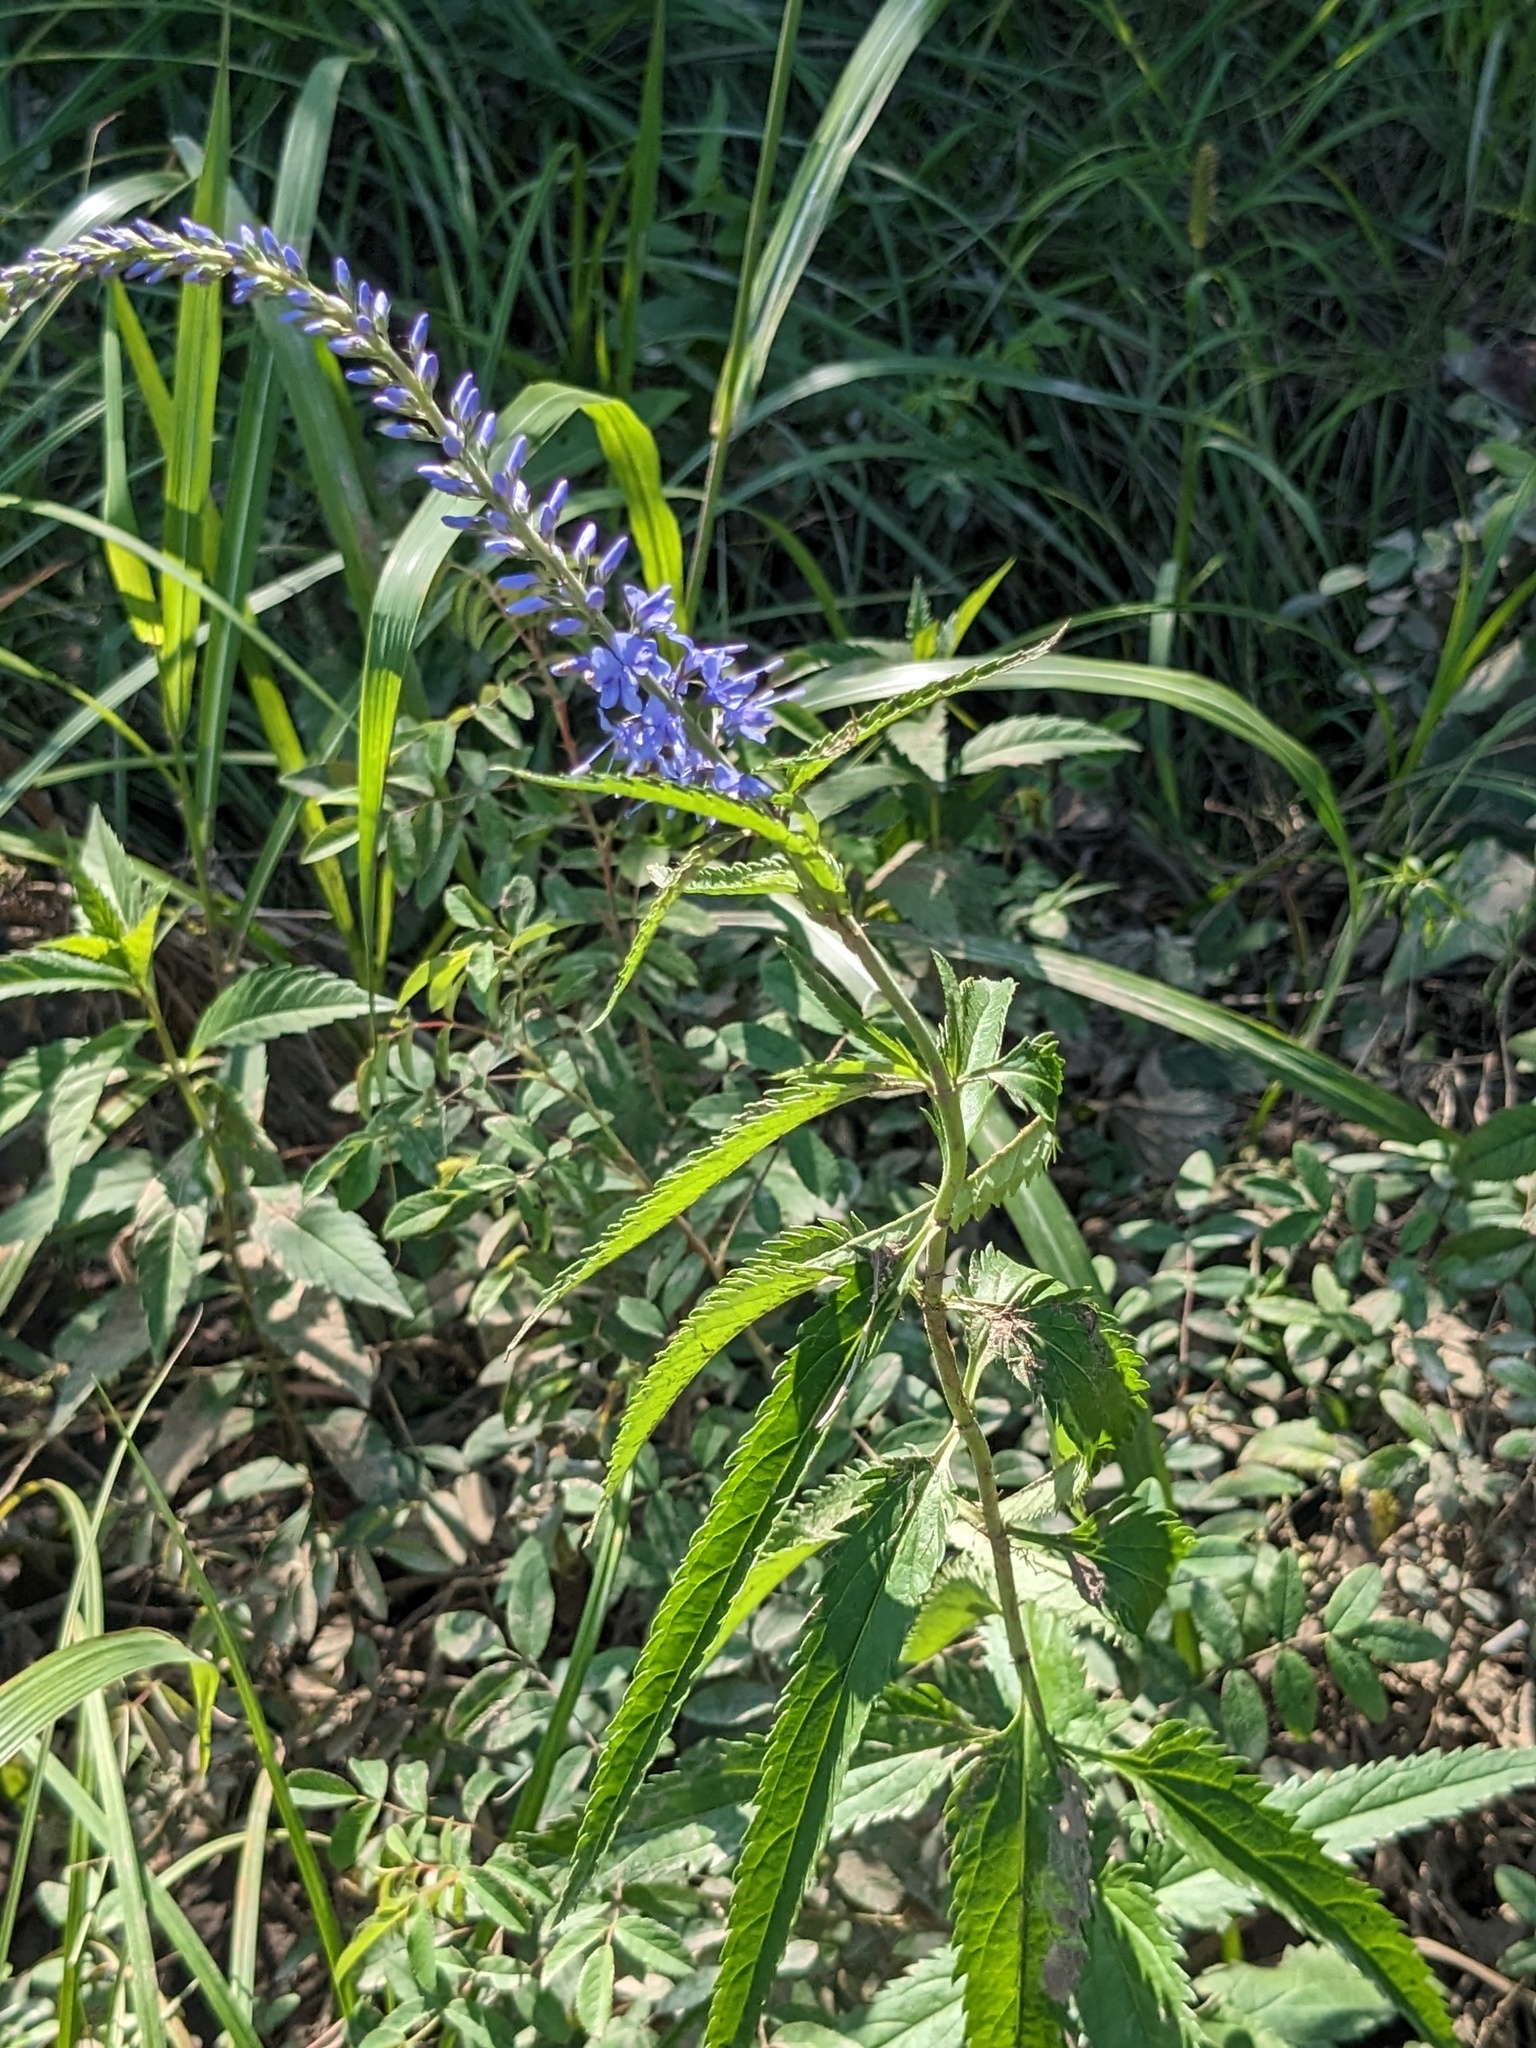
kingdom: Plantae
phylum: Tracheophyta
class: Magnoliopsida
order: Lamiales
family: Plantaginaceae
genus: Veronica
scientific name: Veronica longifolia
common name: Garden speedwell
